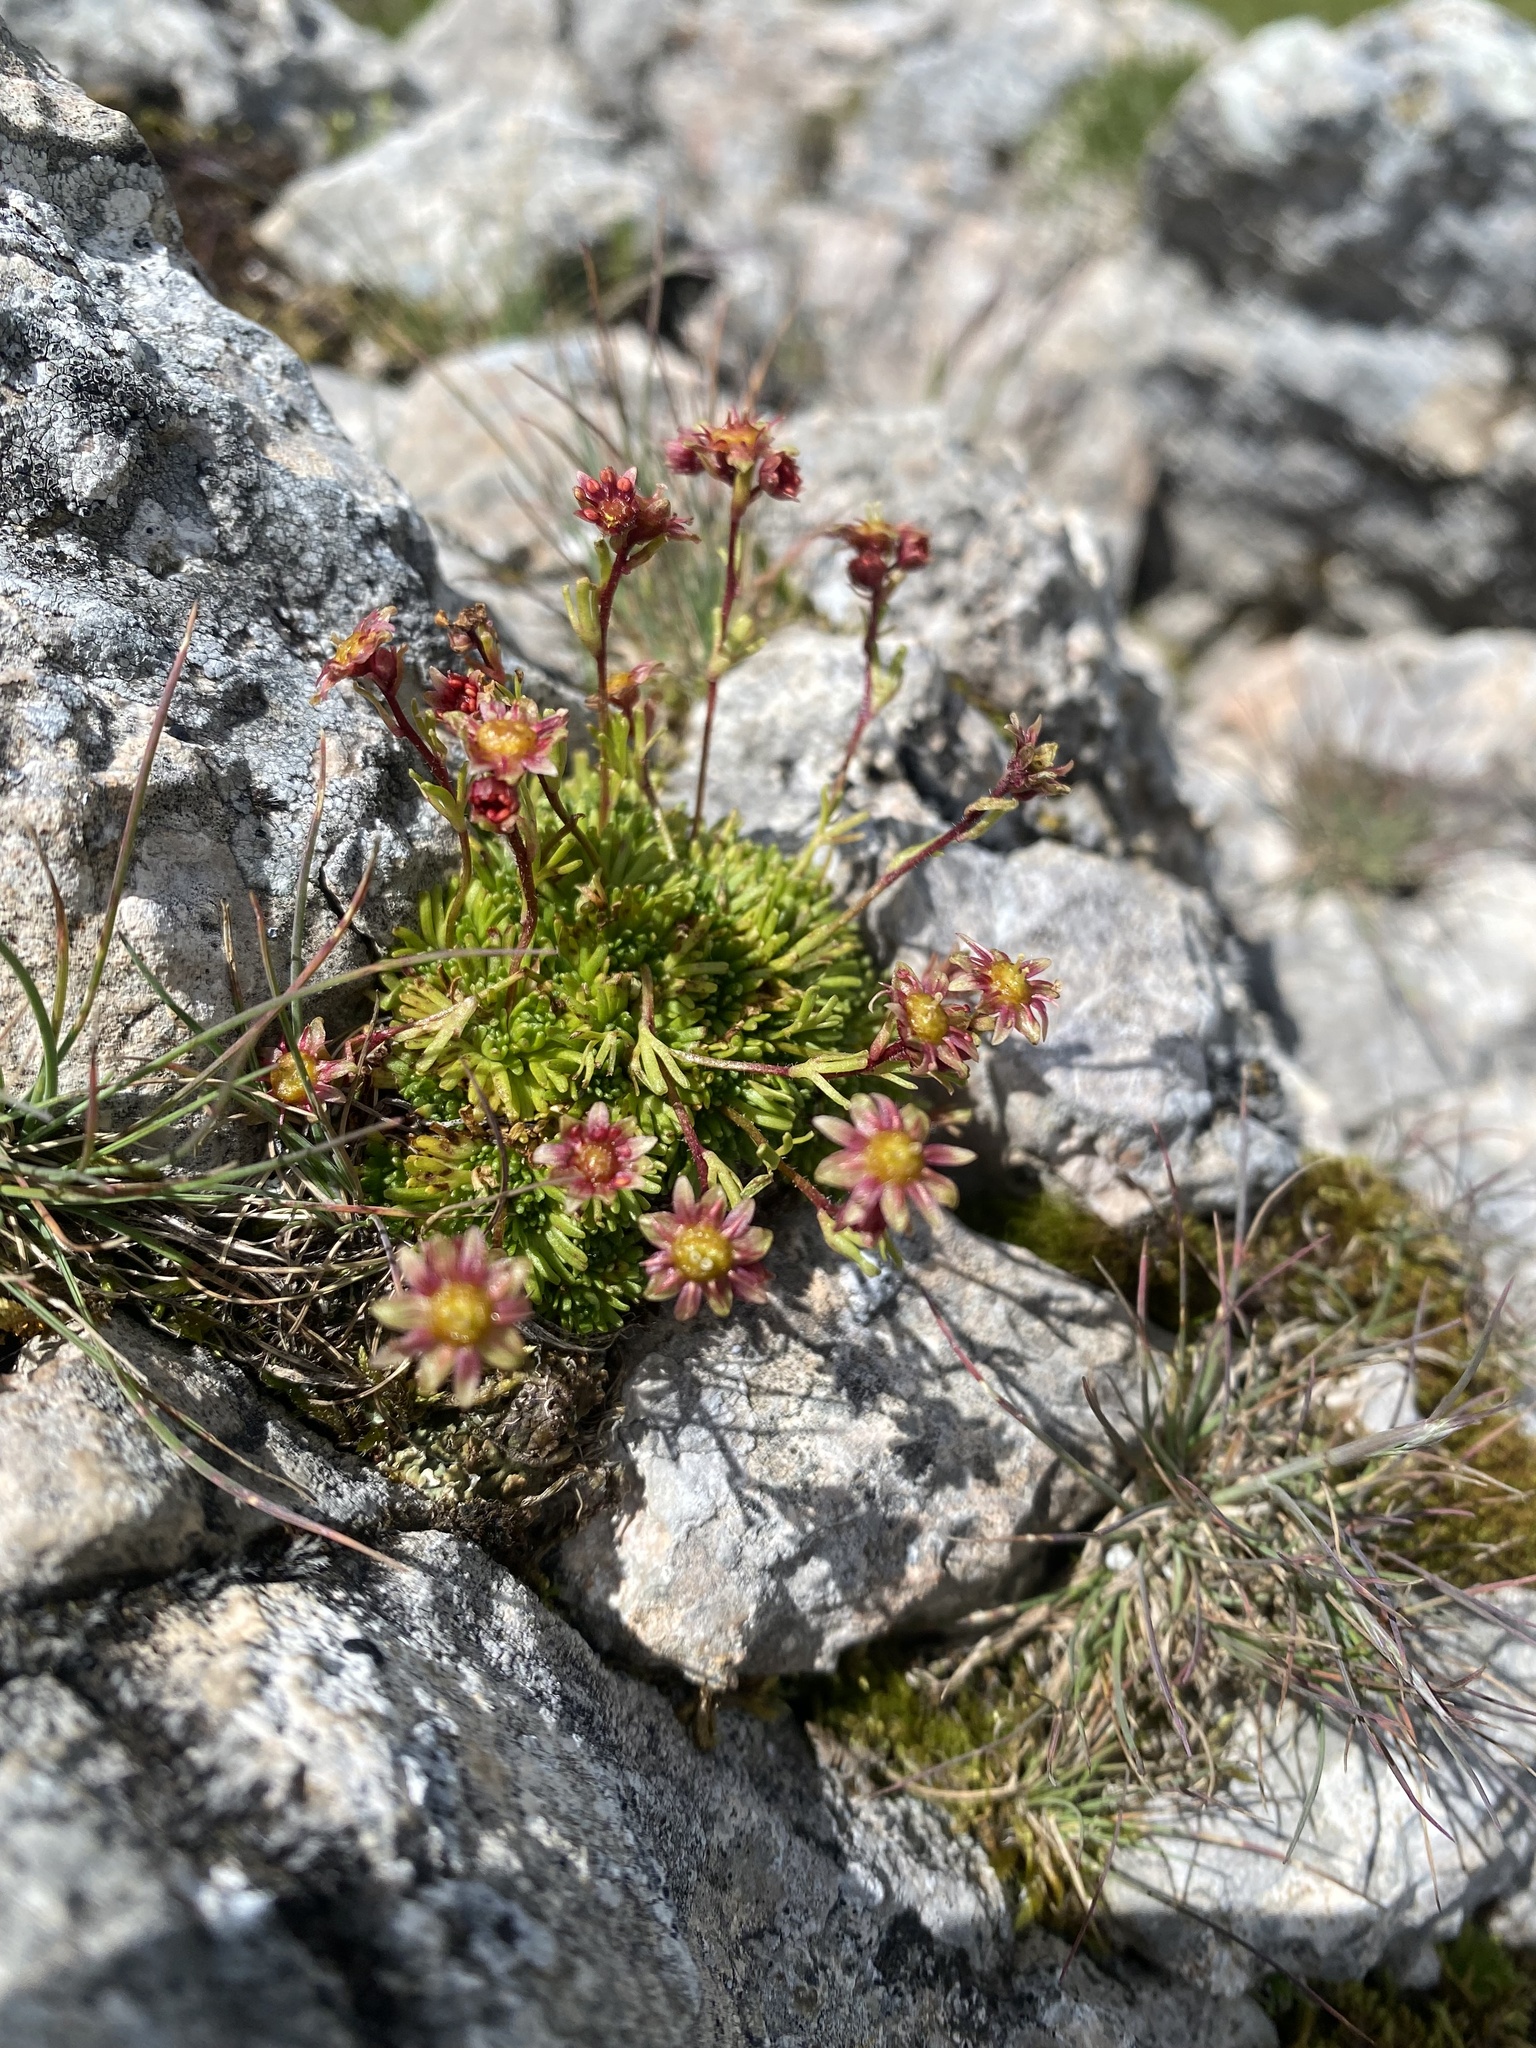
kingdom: Plantae
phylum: Tracheophyta
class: Magnoliopsida
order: Saxifragales
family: Saxifragaceae
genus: Saxifraga
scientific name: Saxifraga moschata
